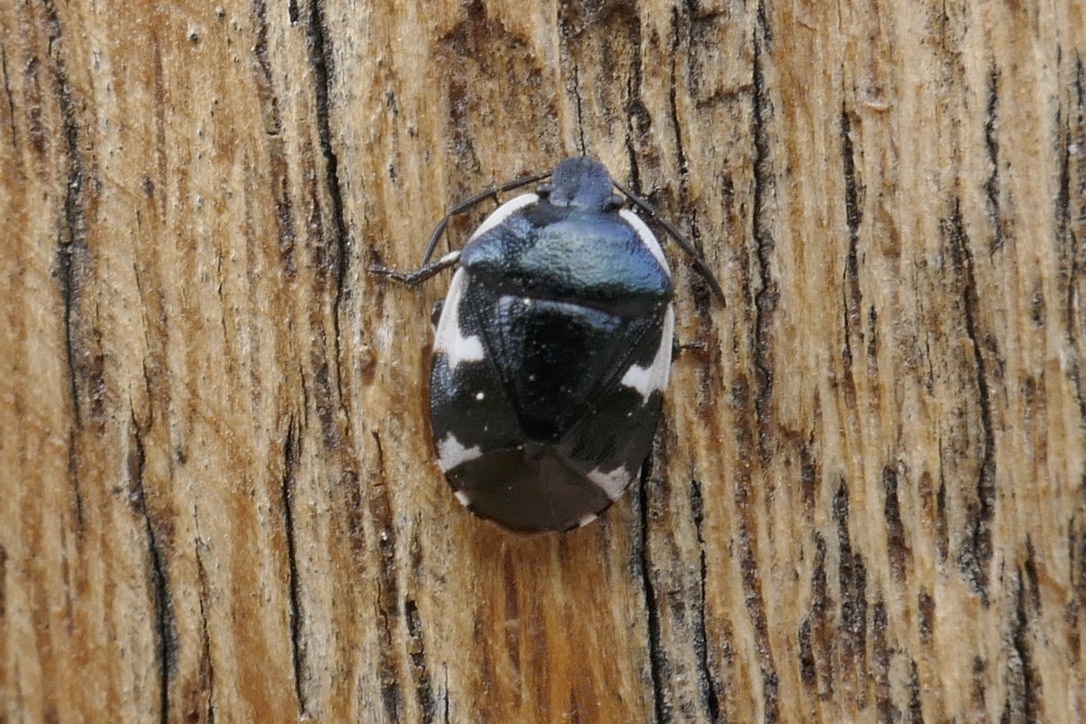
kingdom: Animalia
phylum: Arthropoda
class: Insecta
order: Hemiptera
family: Cydnidae
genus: Tritomegas
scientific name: Tritomegas sexmaculatus
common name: Rambur's pied shieldbug
